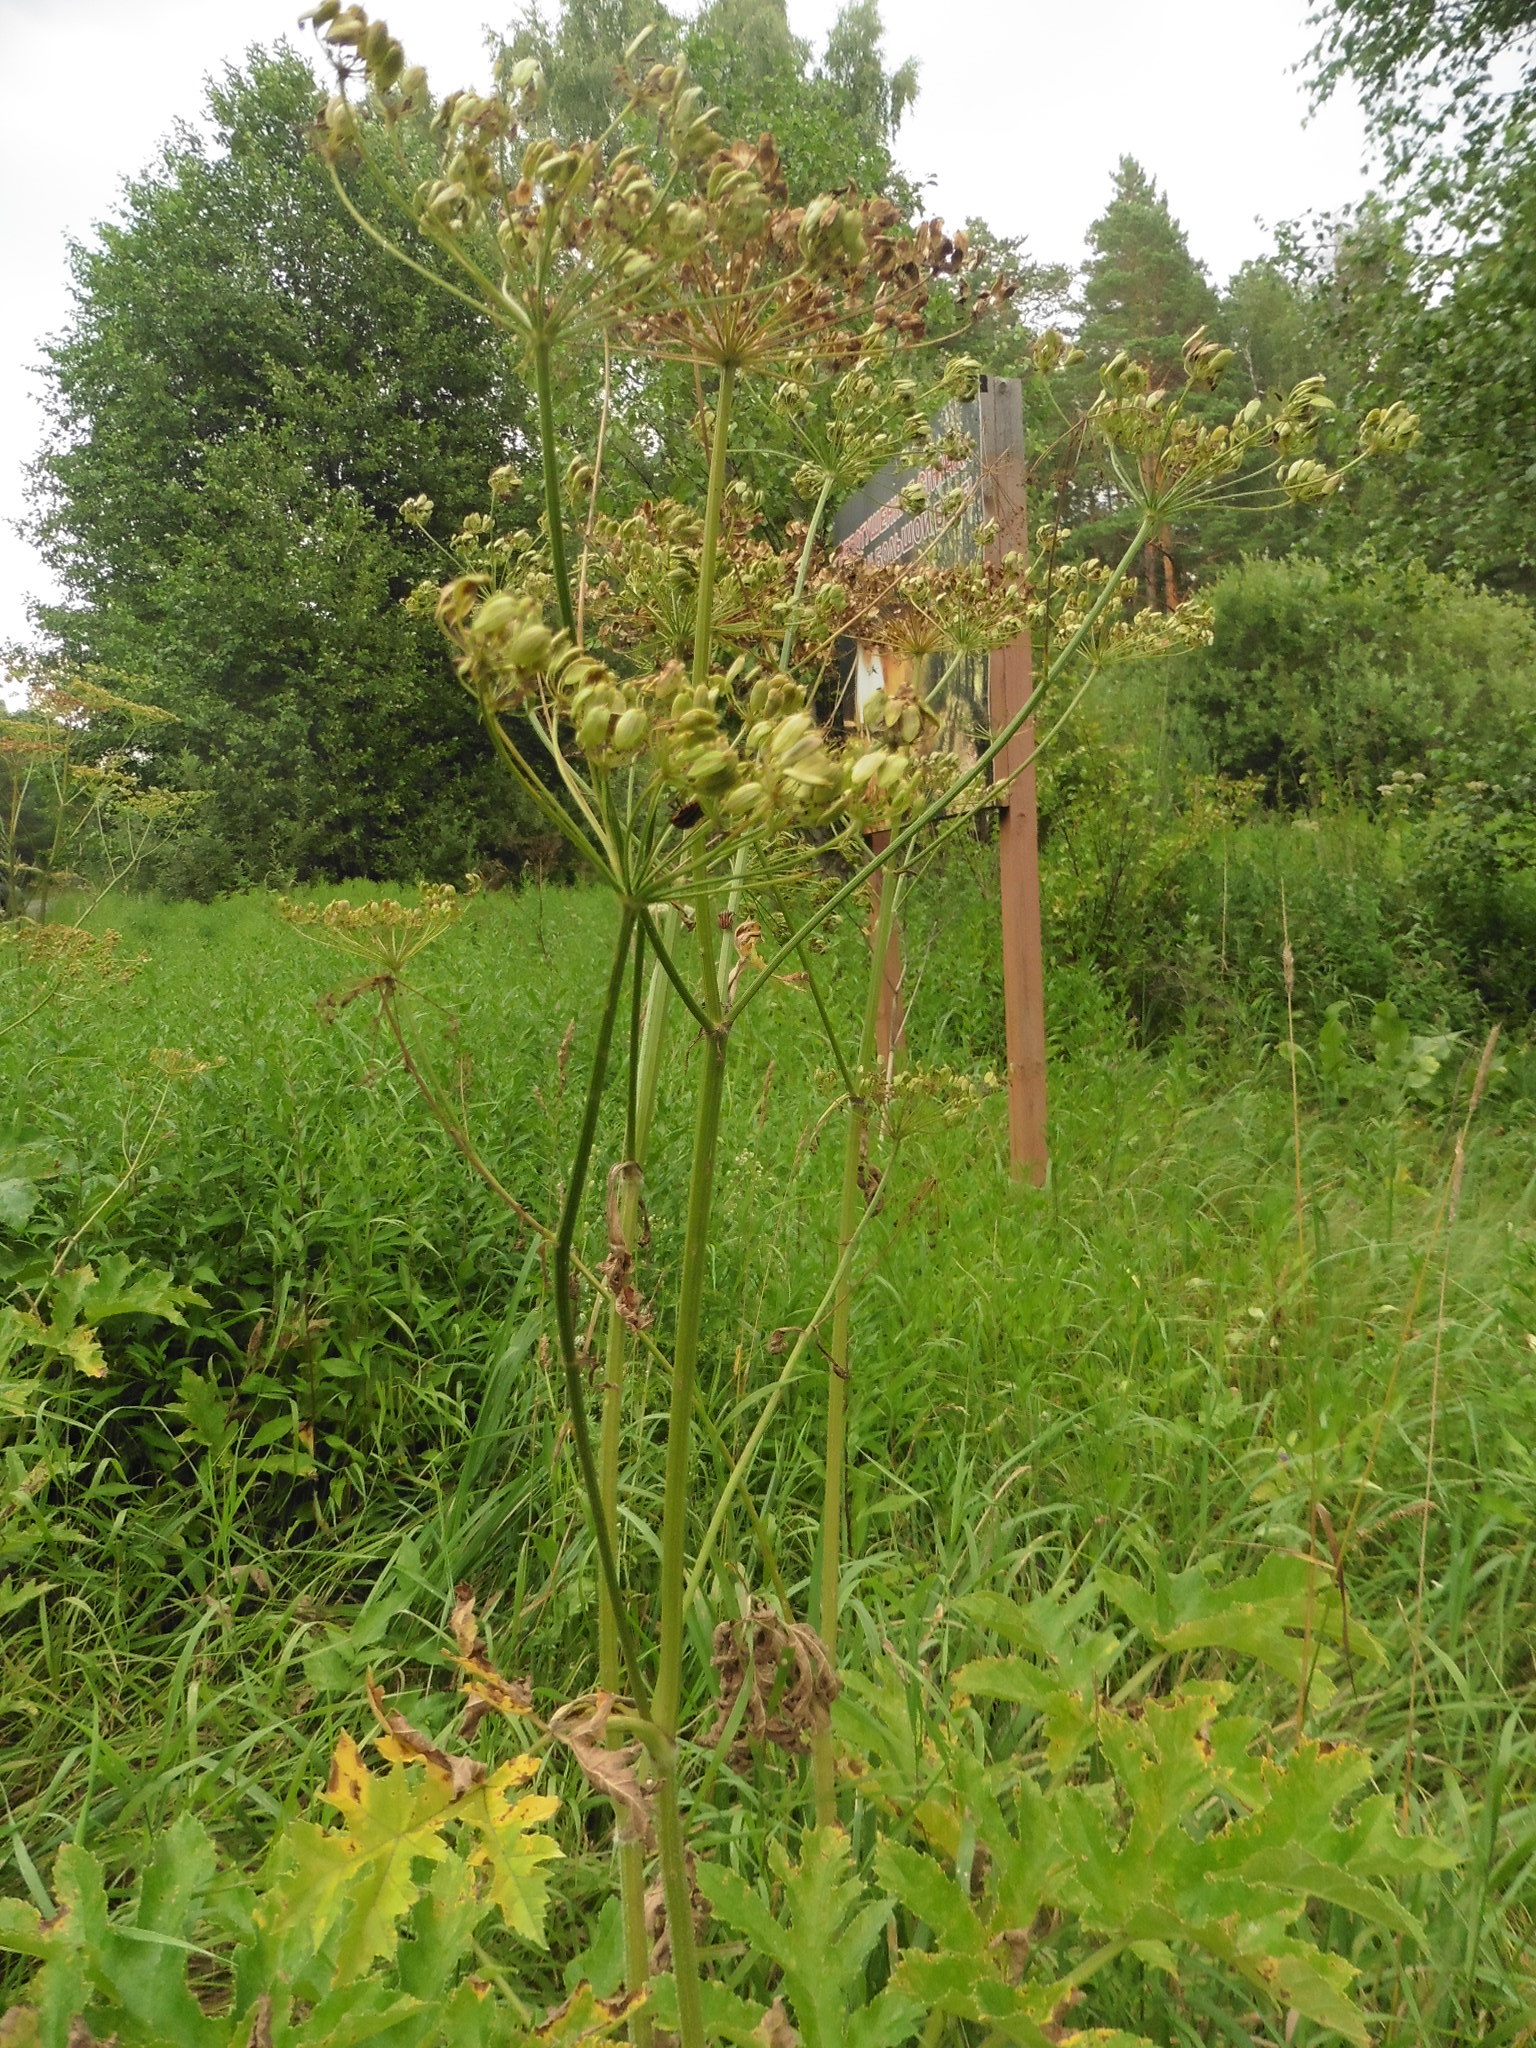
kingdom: Plantae
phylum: Tracheophyta
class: Magnoliopsida
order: Apiales
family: Apiaceae
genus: Heracleum
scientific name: Heracleum sphondylium
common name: Hogweed
